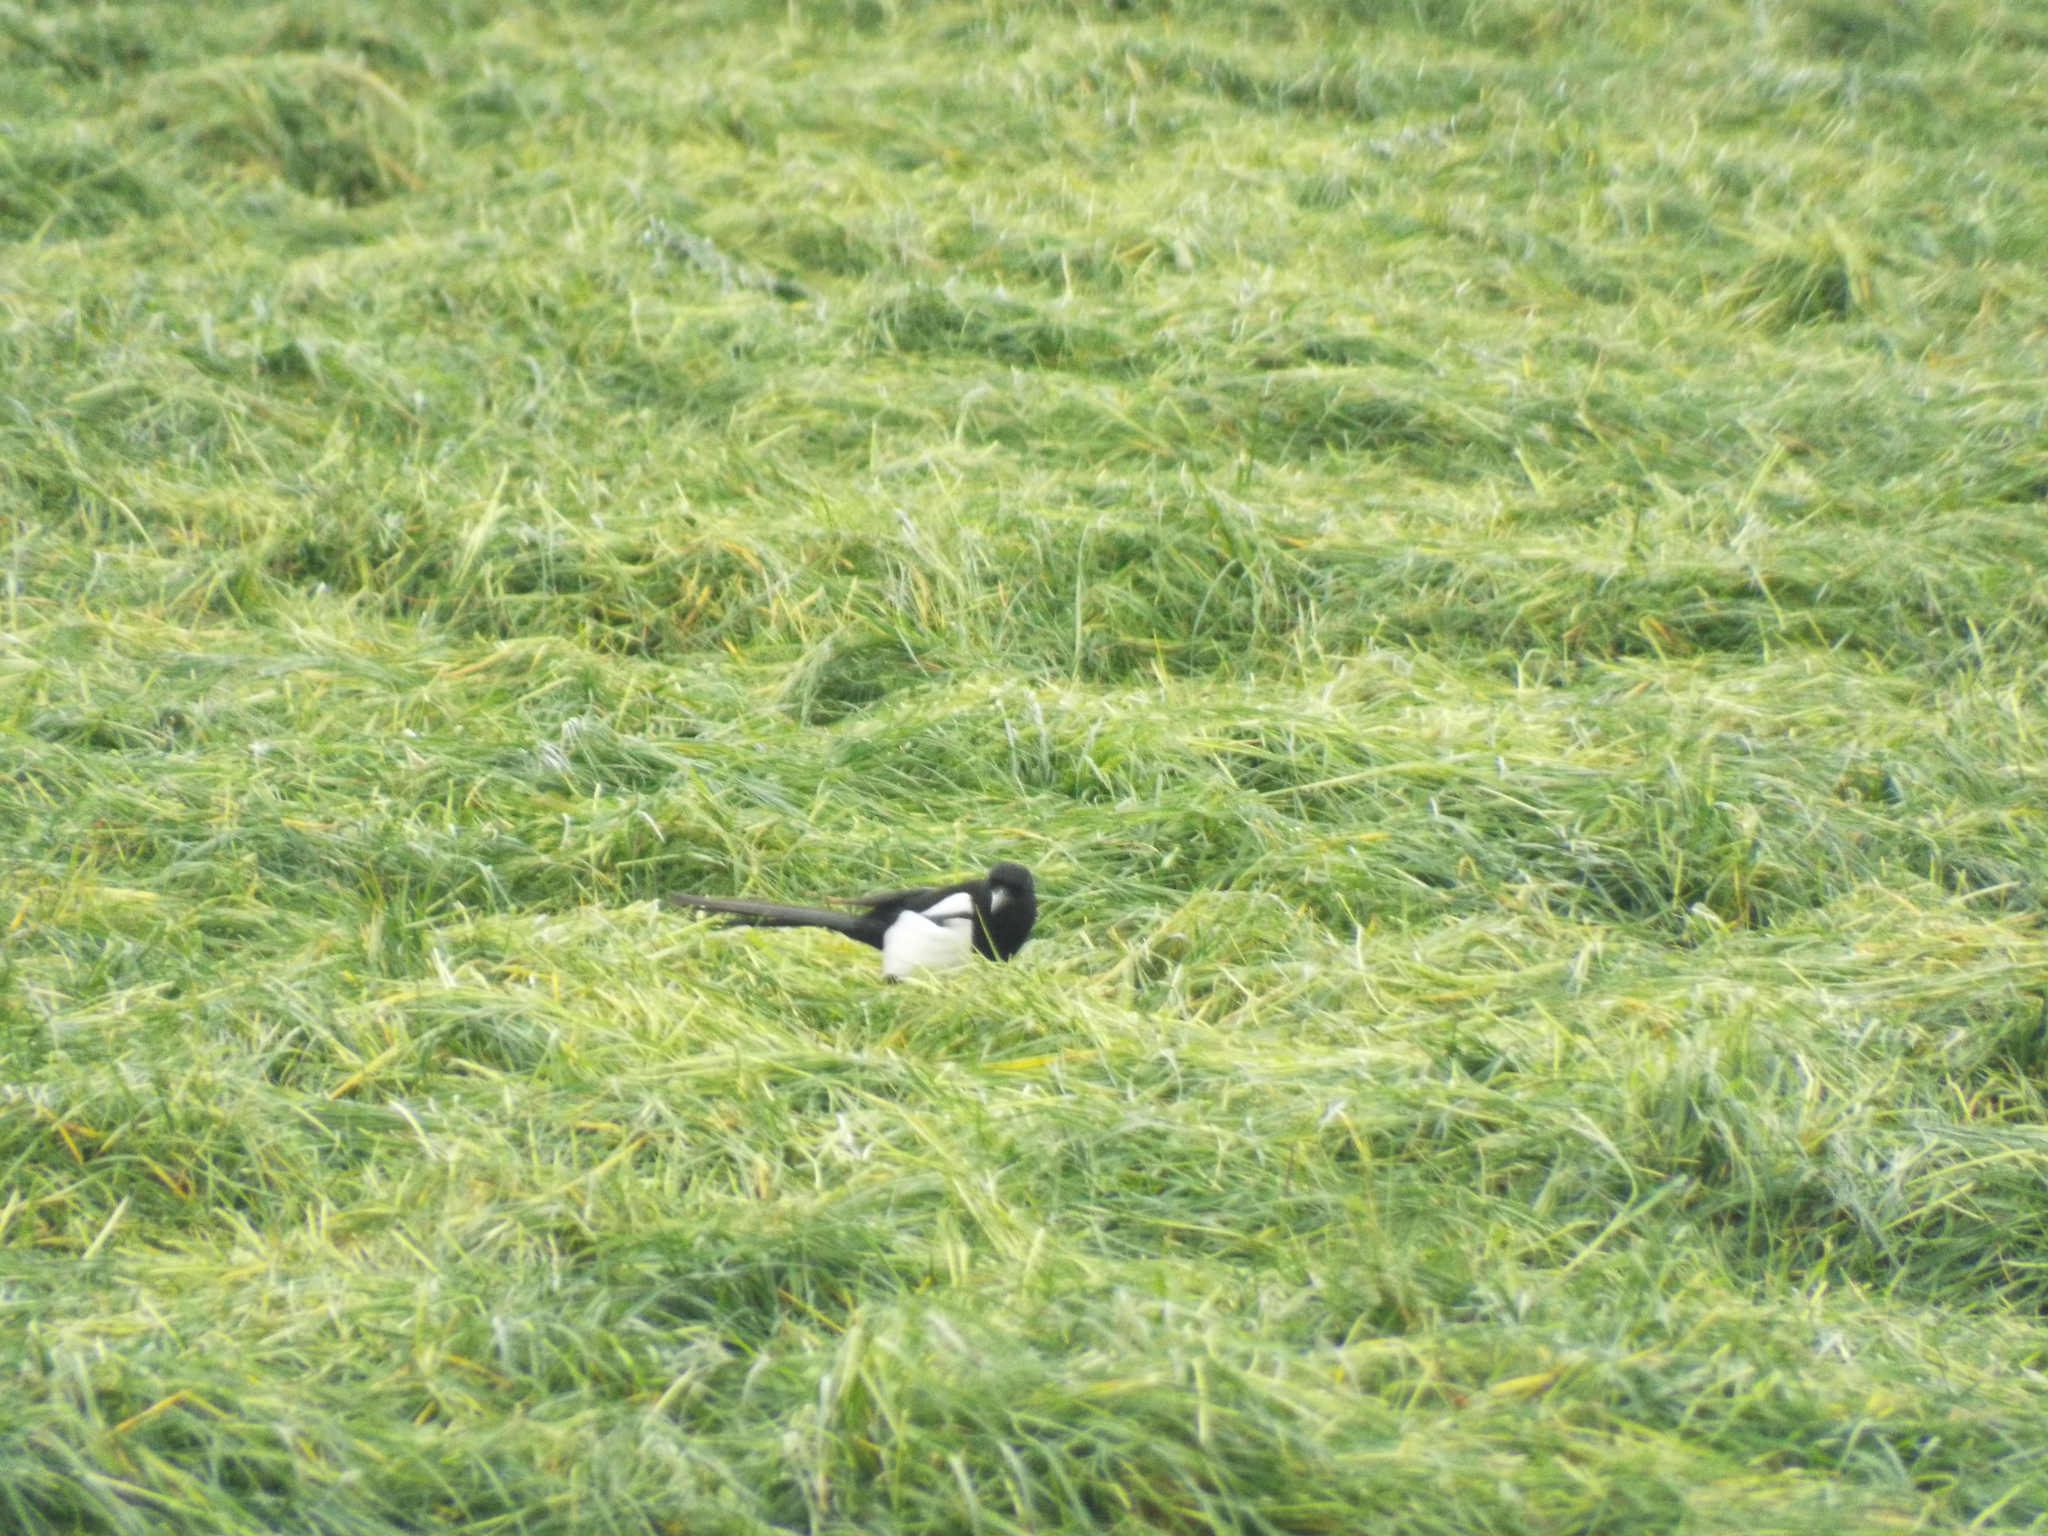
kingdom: Animalia
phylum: Chordata
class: Aves
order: Passeriformes
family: Corvidae
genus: Pica
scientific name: Pica pica
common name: Eurasian magpie
